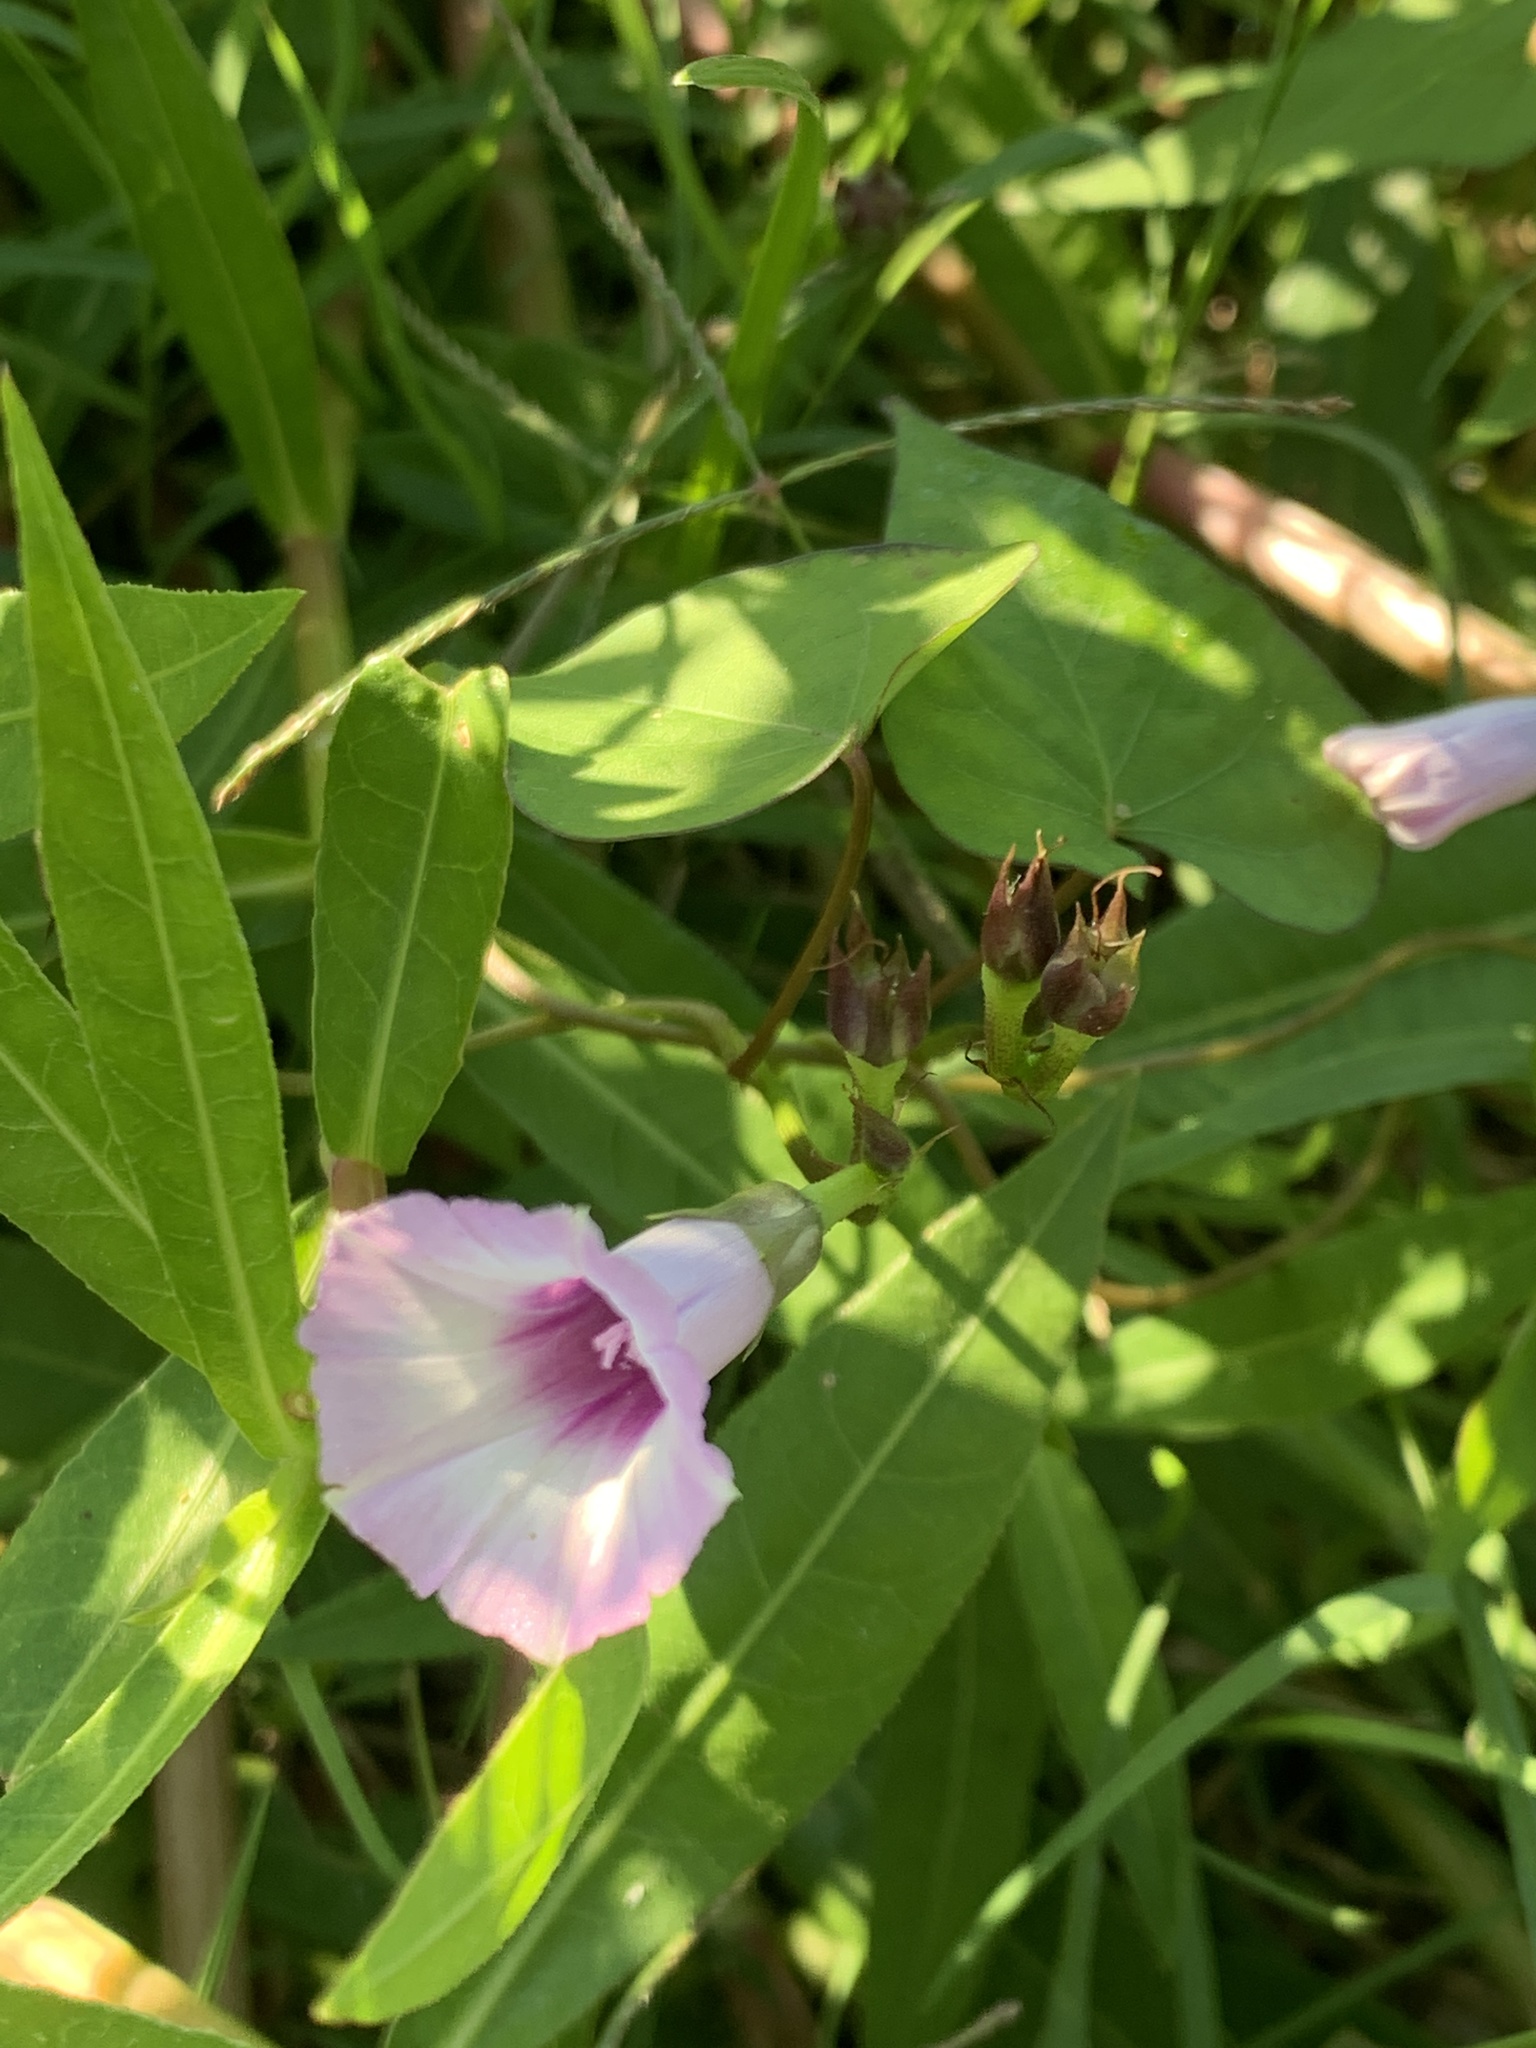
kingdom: Plantae
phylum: Tracheophyta
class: Magnoliopsida
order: Solanales
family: Convolvulaceae
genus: Ipomoea
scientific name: Ipomoea grandifolia
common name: Aiea morning glory
